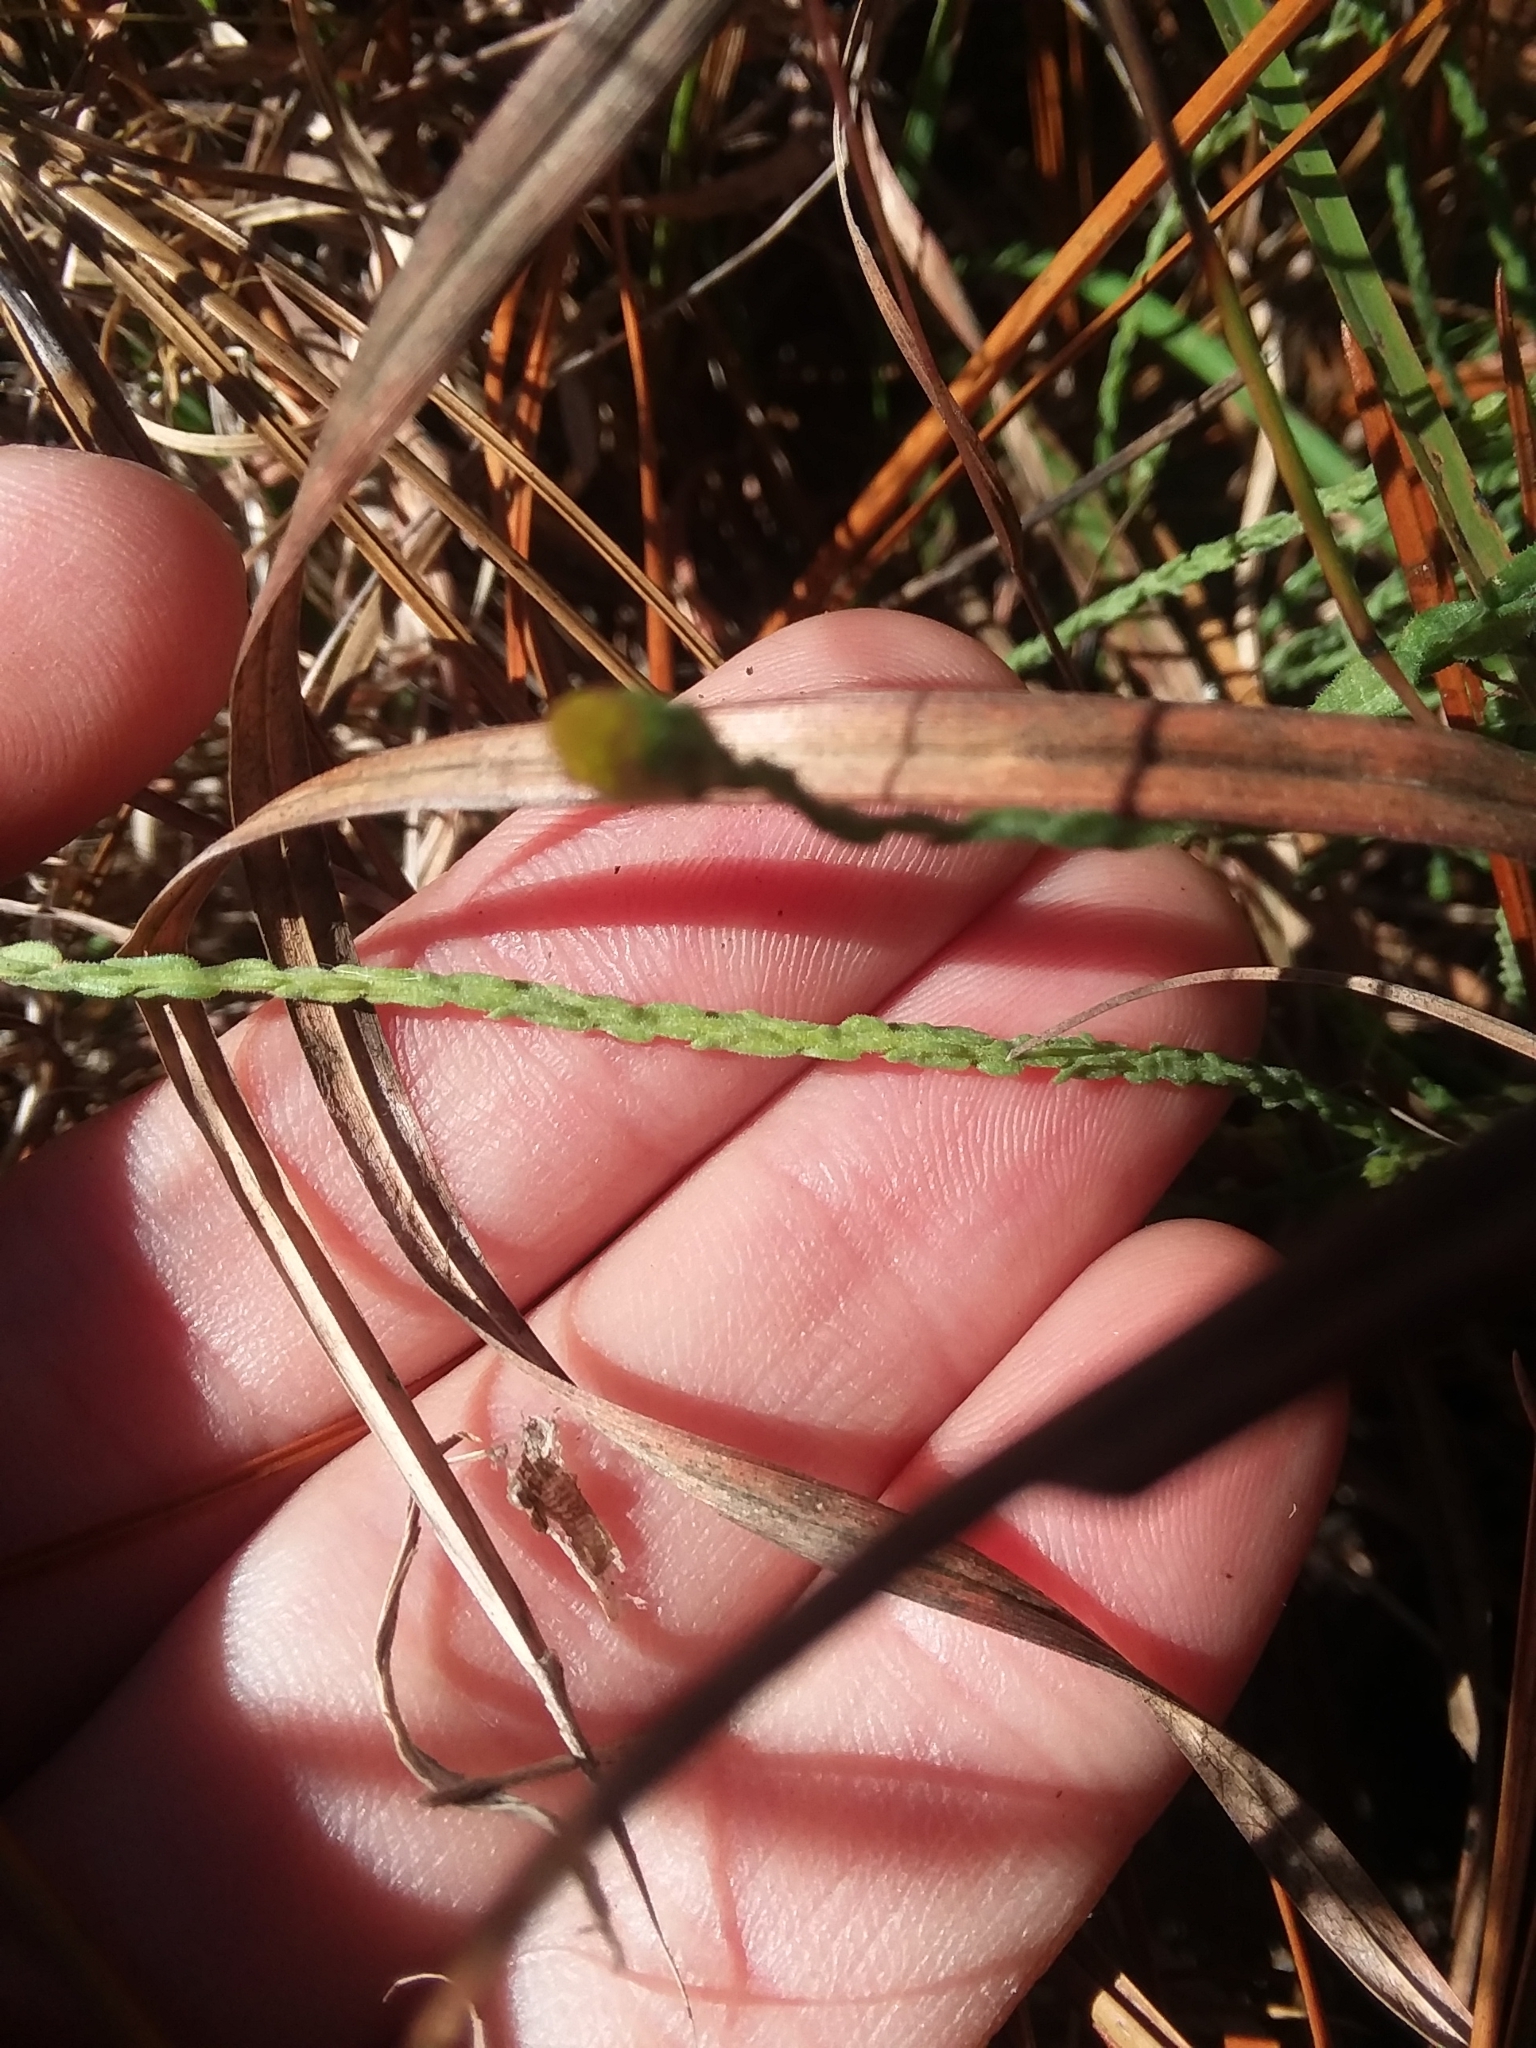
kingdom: Plantae
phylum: Tracheophyta
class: Magnoliopsida
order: Asterales
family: Asteraceae
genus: Symphyotrichum
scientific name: Symphyotrichum adnatum
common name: Scale-leaf aster
